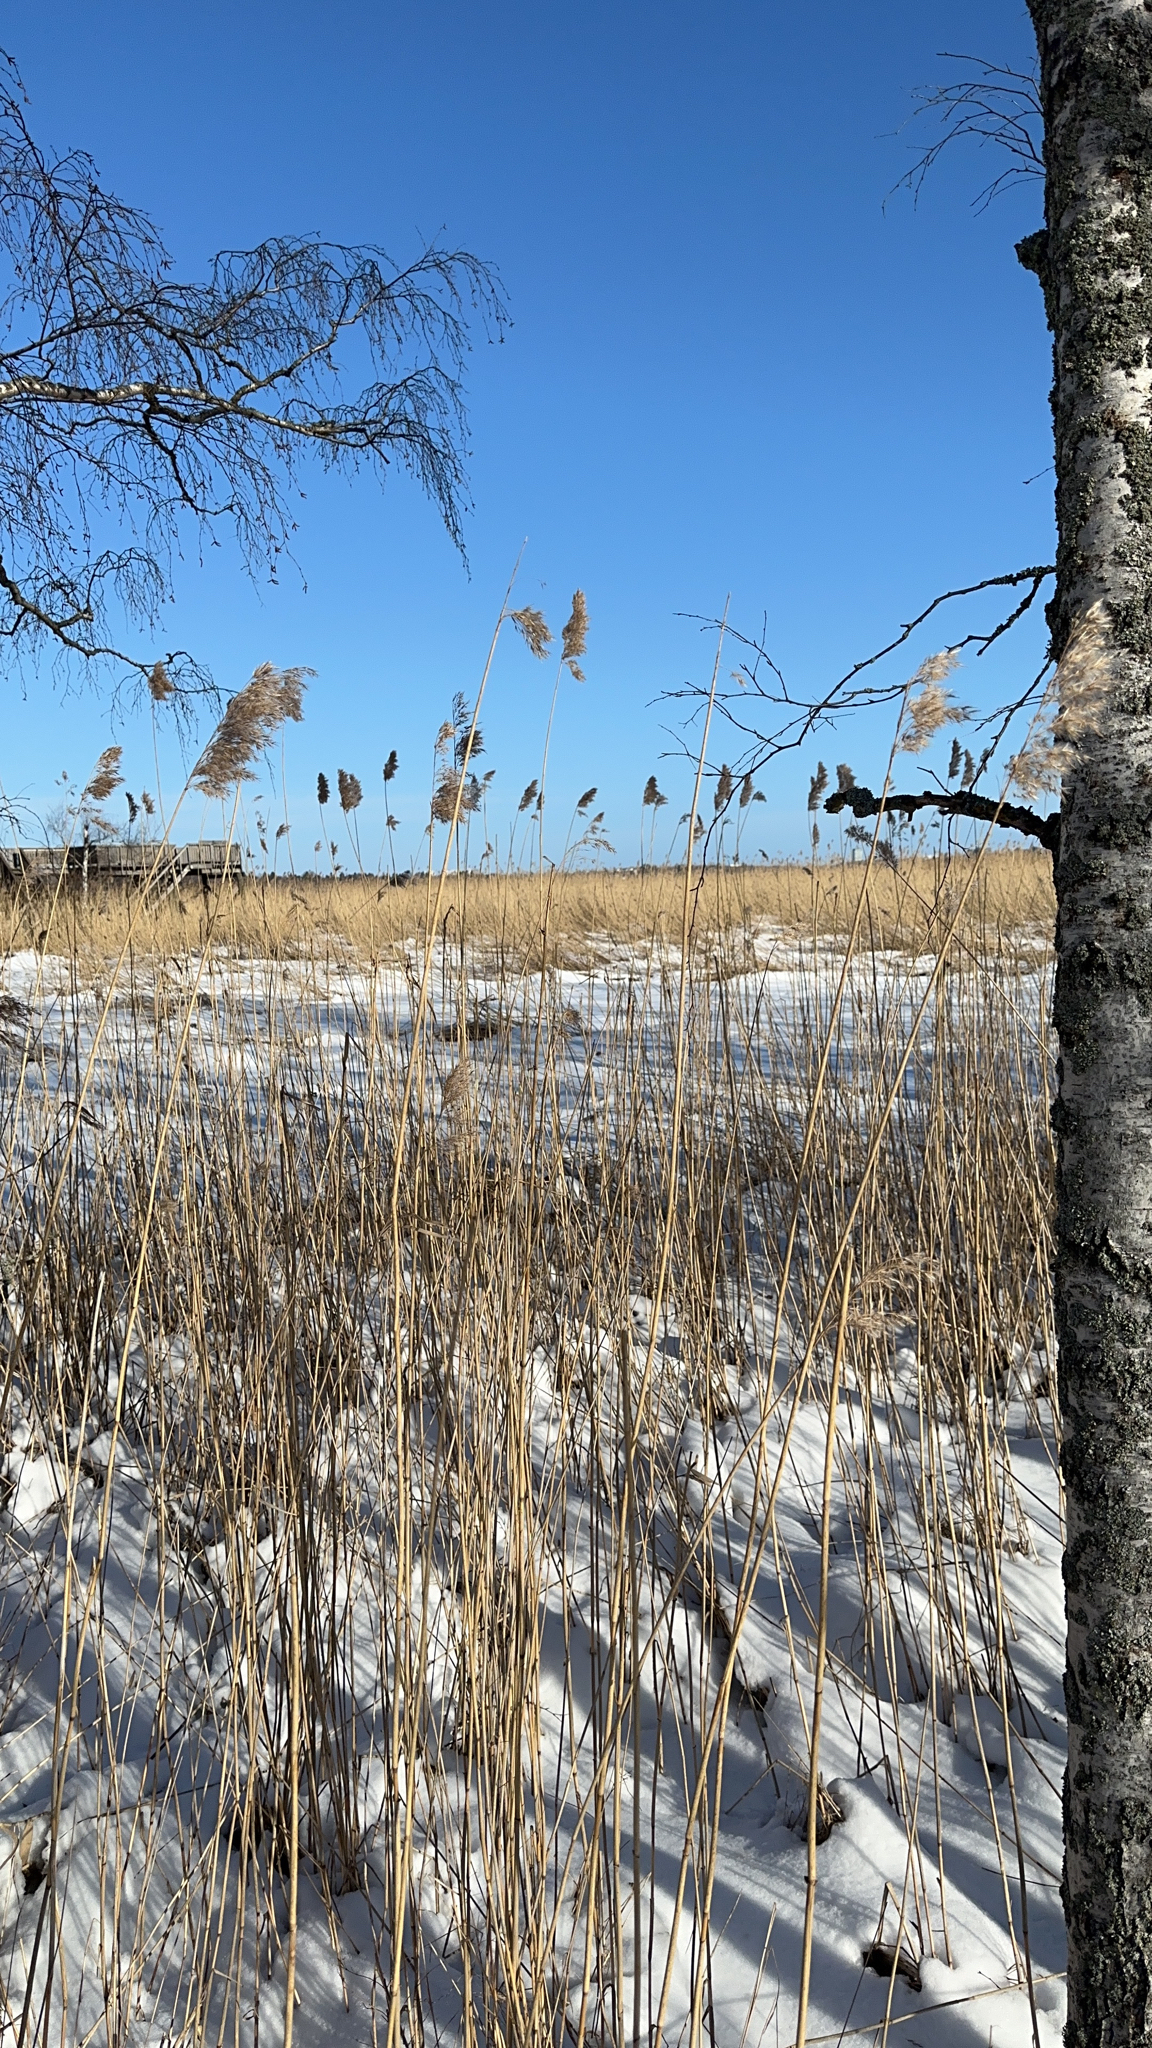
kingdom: Plantae
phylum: Tracheophyta
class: Liliopsida
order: Poales
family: Poaceae
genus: Phragmites
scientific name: Phragmites australis
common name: Common reed
